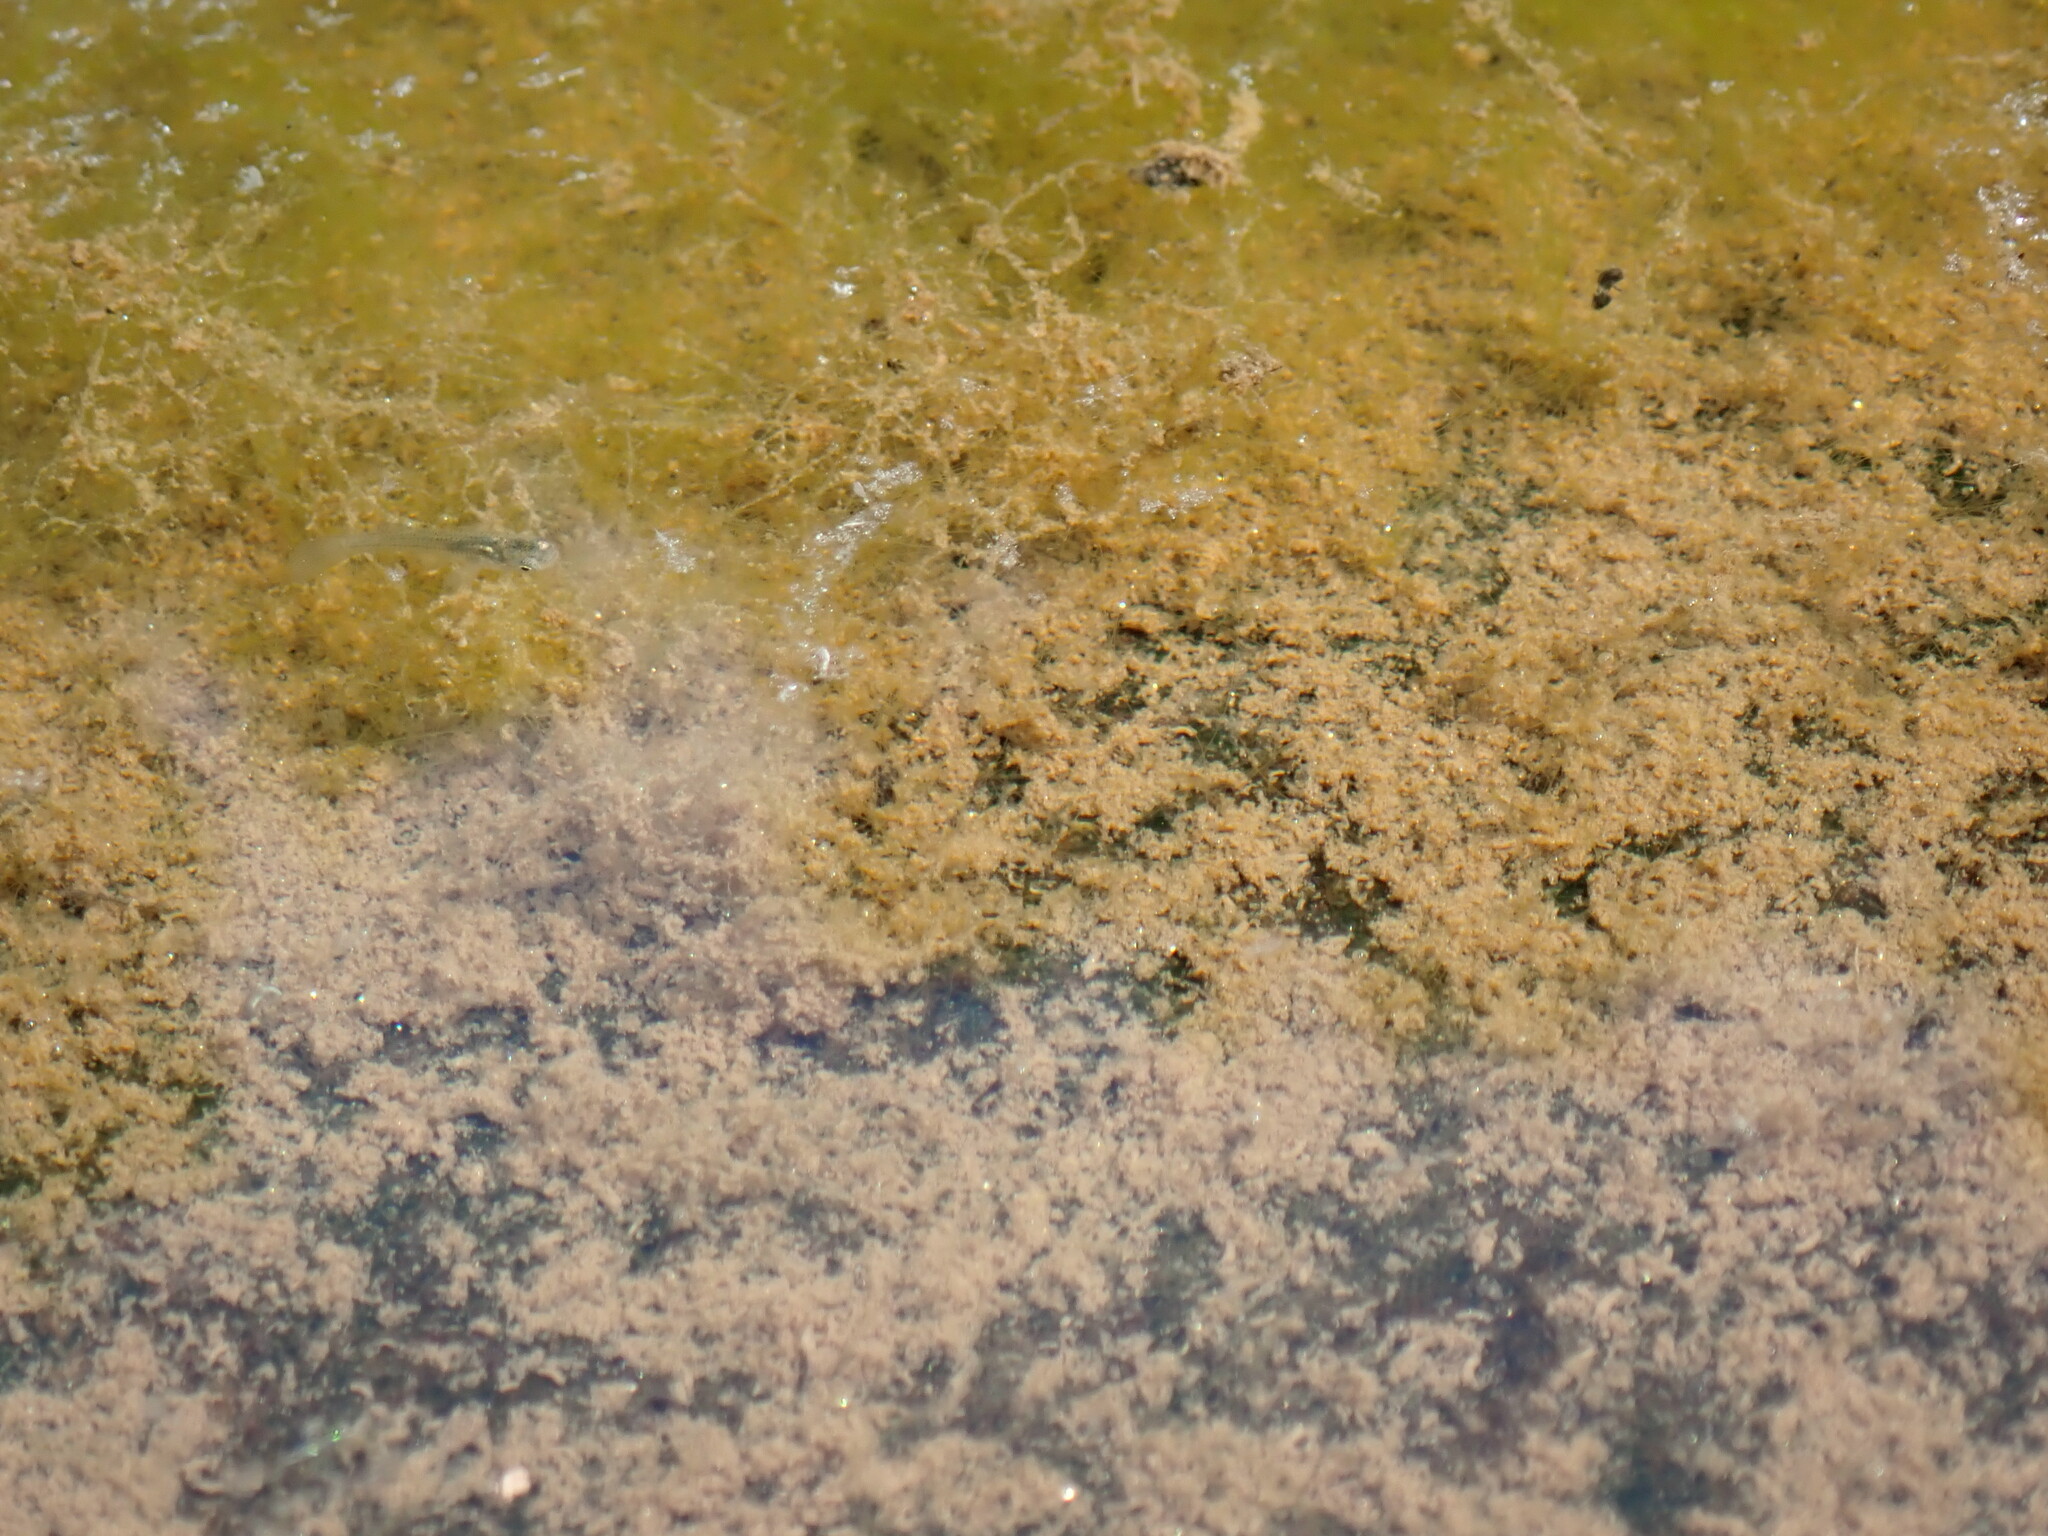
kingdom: Animalia
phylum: Chordata
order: Cyprinodontiformes
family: Poeciliidae
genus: Gambusia
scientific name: Gambusia holbrooki
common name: Eastern mosquitofish
